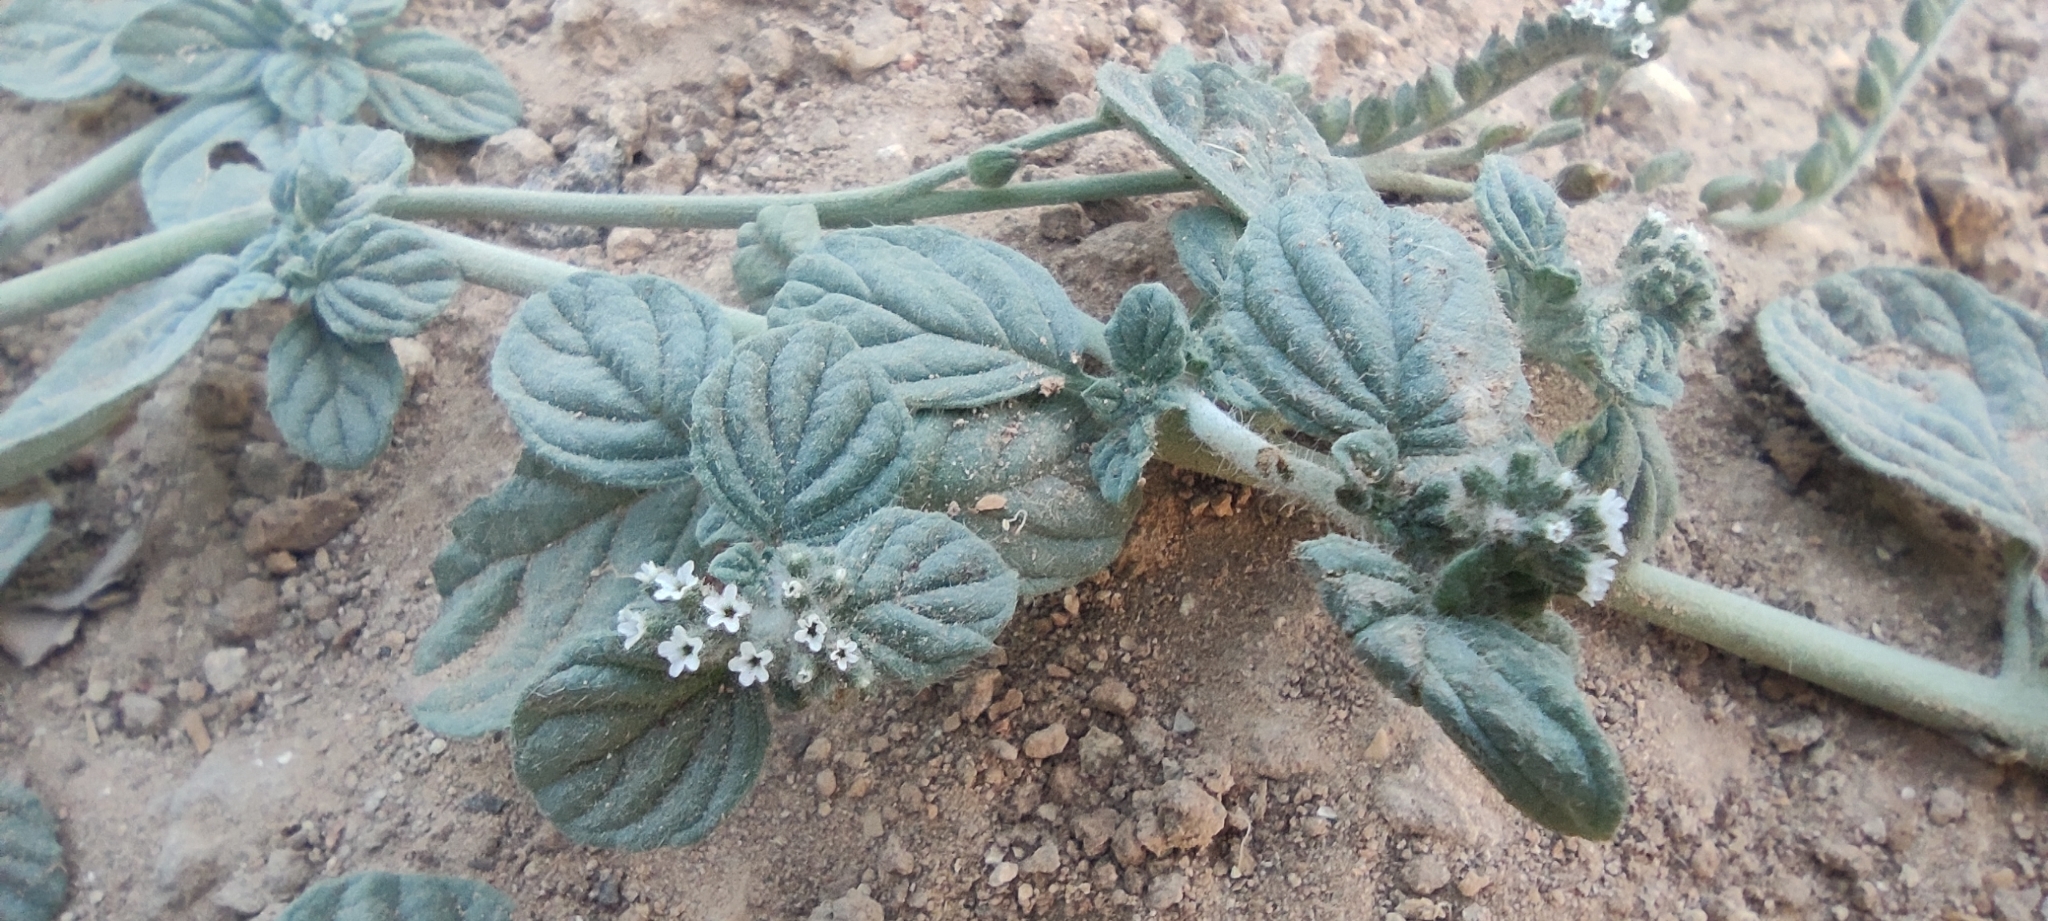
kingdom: Plantae
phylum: Tracheophyta
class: Magnoliopsida
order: Boraginales
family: Heliotropiaceae
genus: Heliotropium
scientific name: Heliotropium supinum
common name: Dwarf heliotrope
